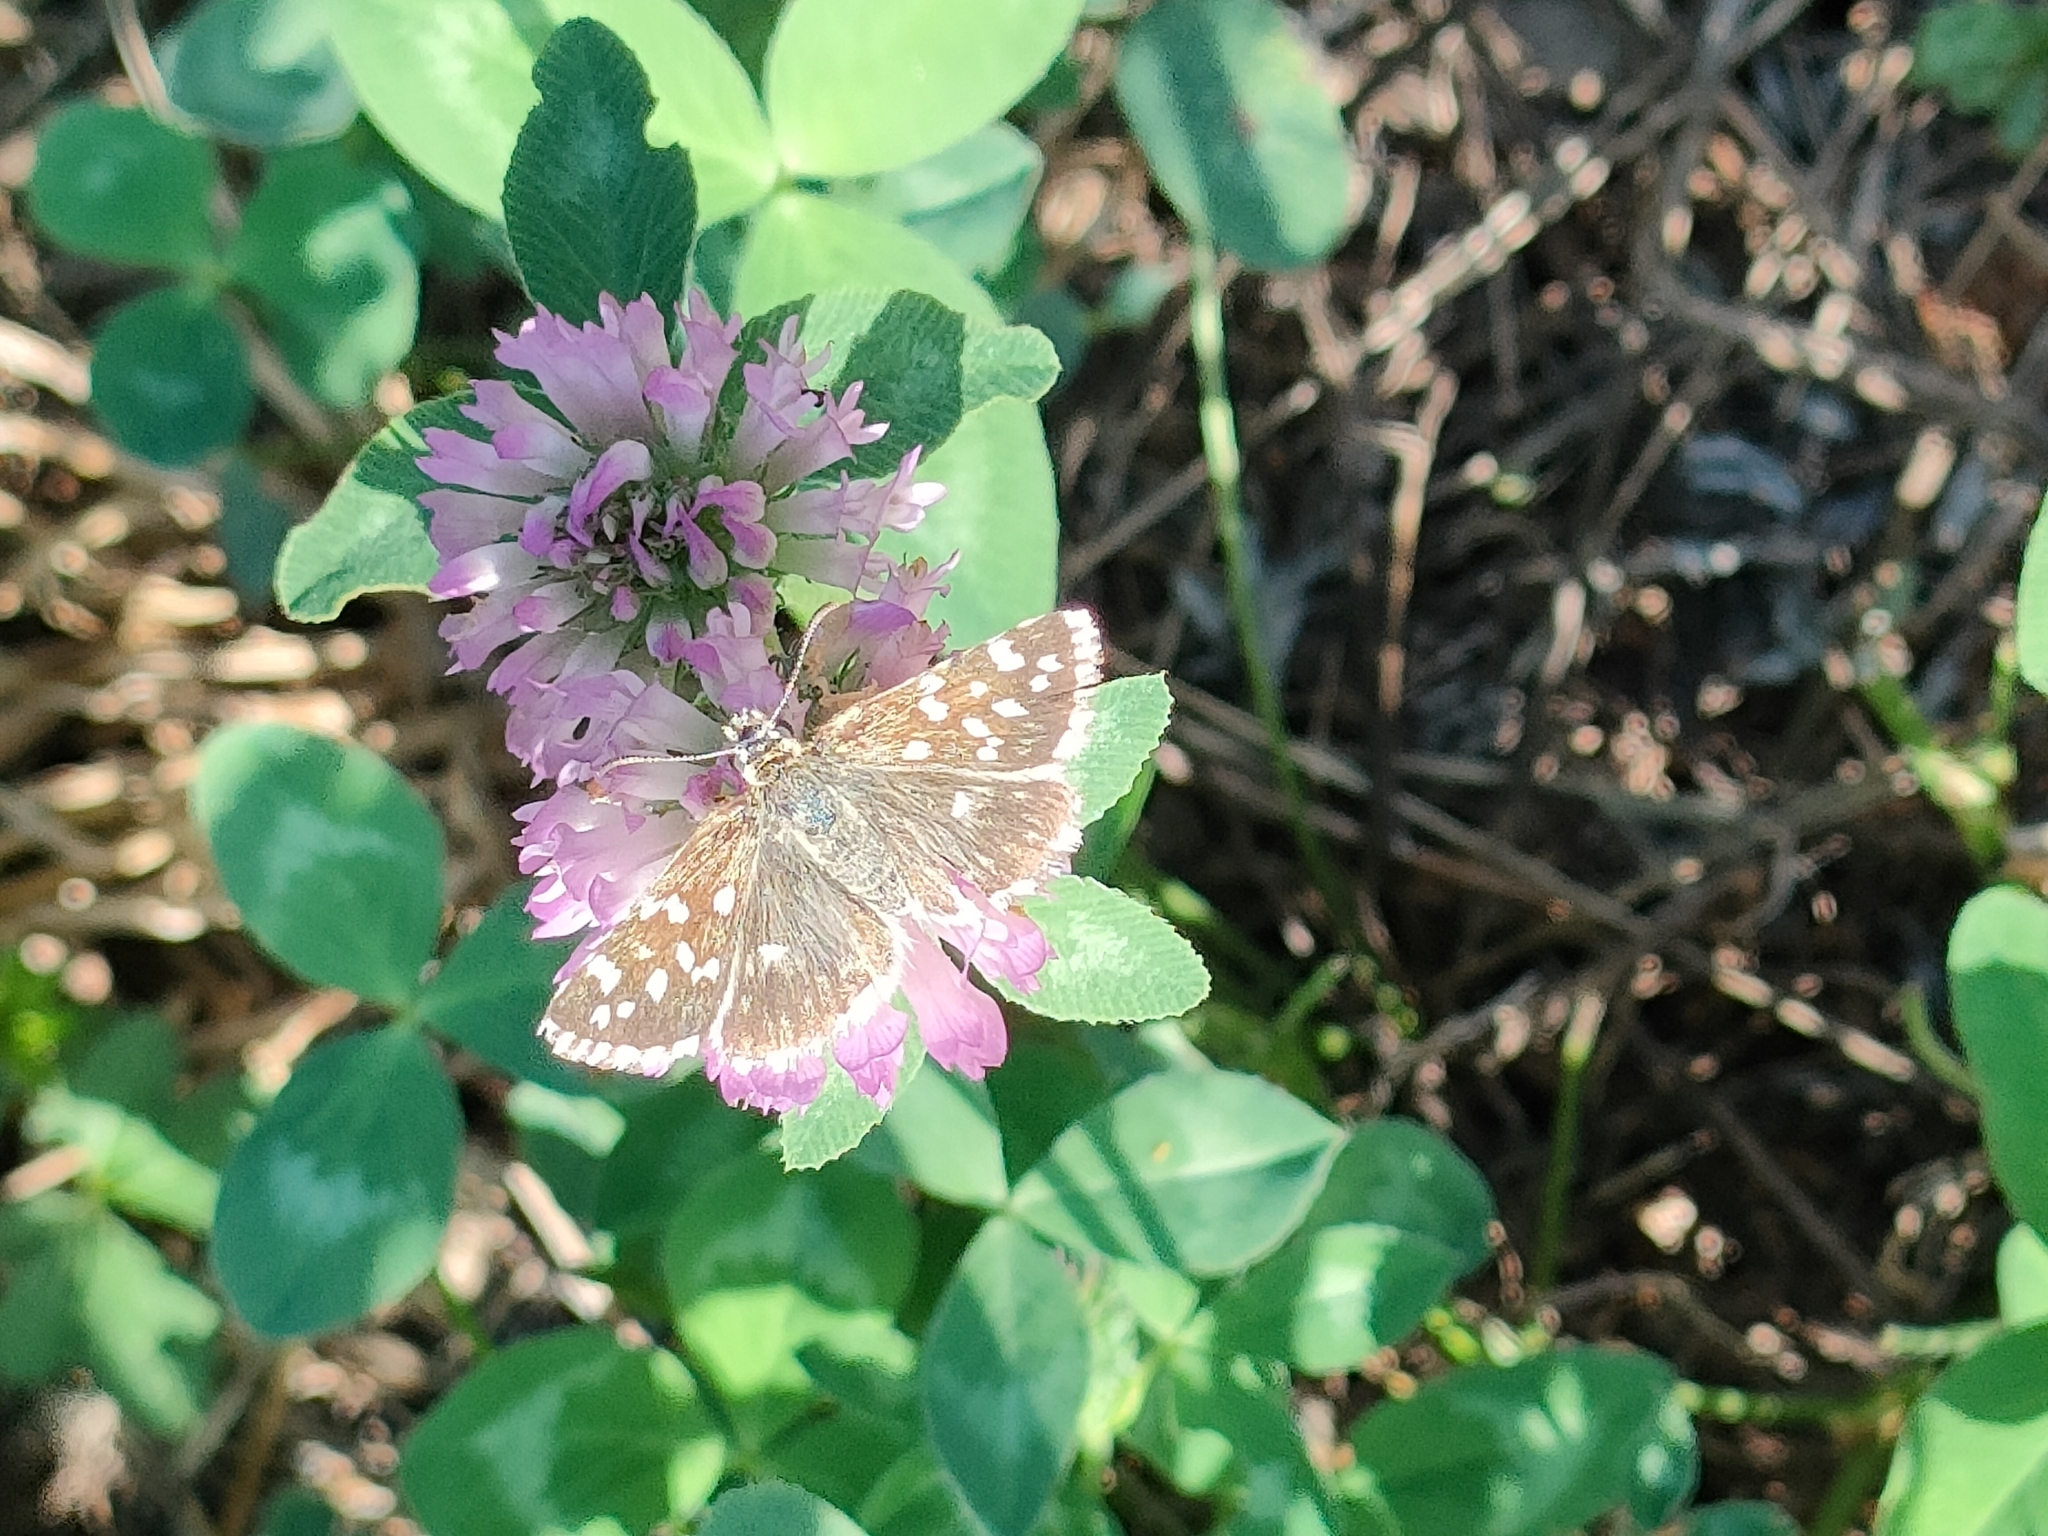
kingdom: Animalia
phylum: Arthropoda
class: Insecta
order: Lepidoptera
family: Hesperiidae
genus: Pyrgus
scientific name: Pyrgus malvoides
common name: Southern grizzled skipper
